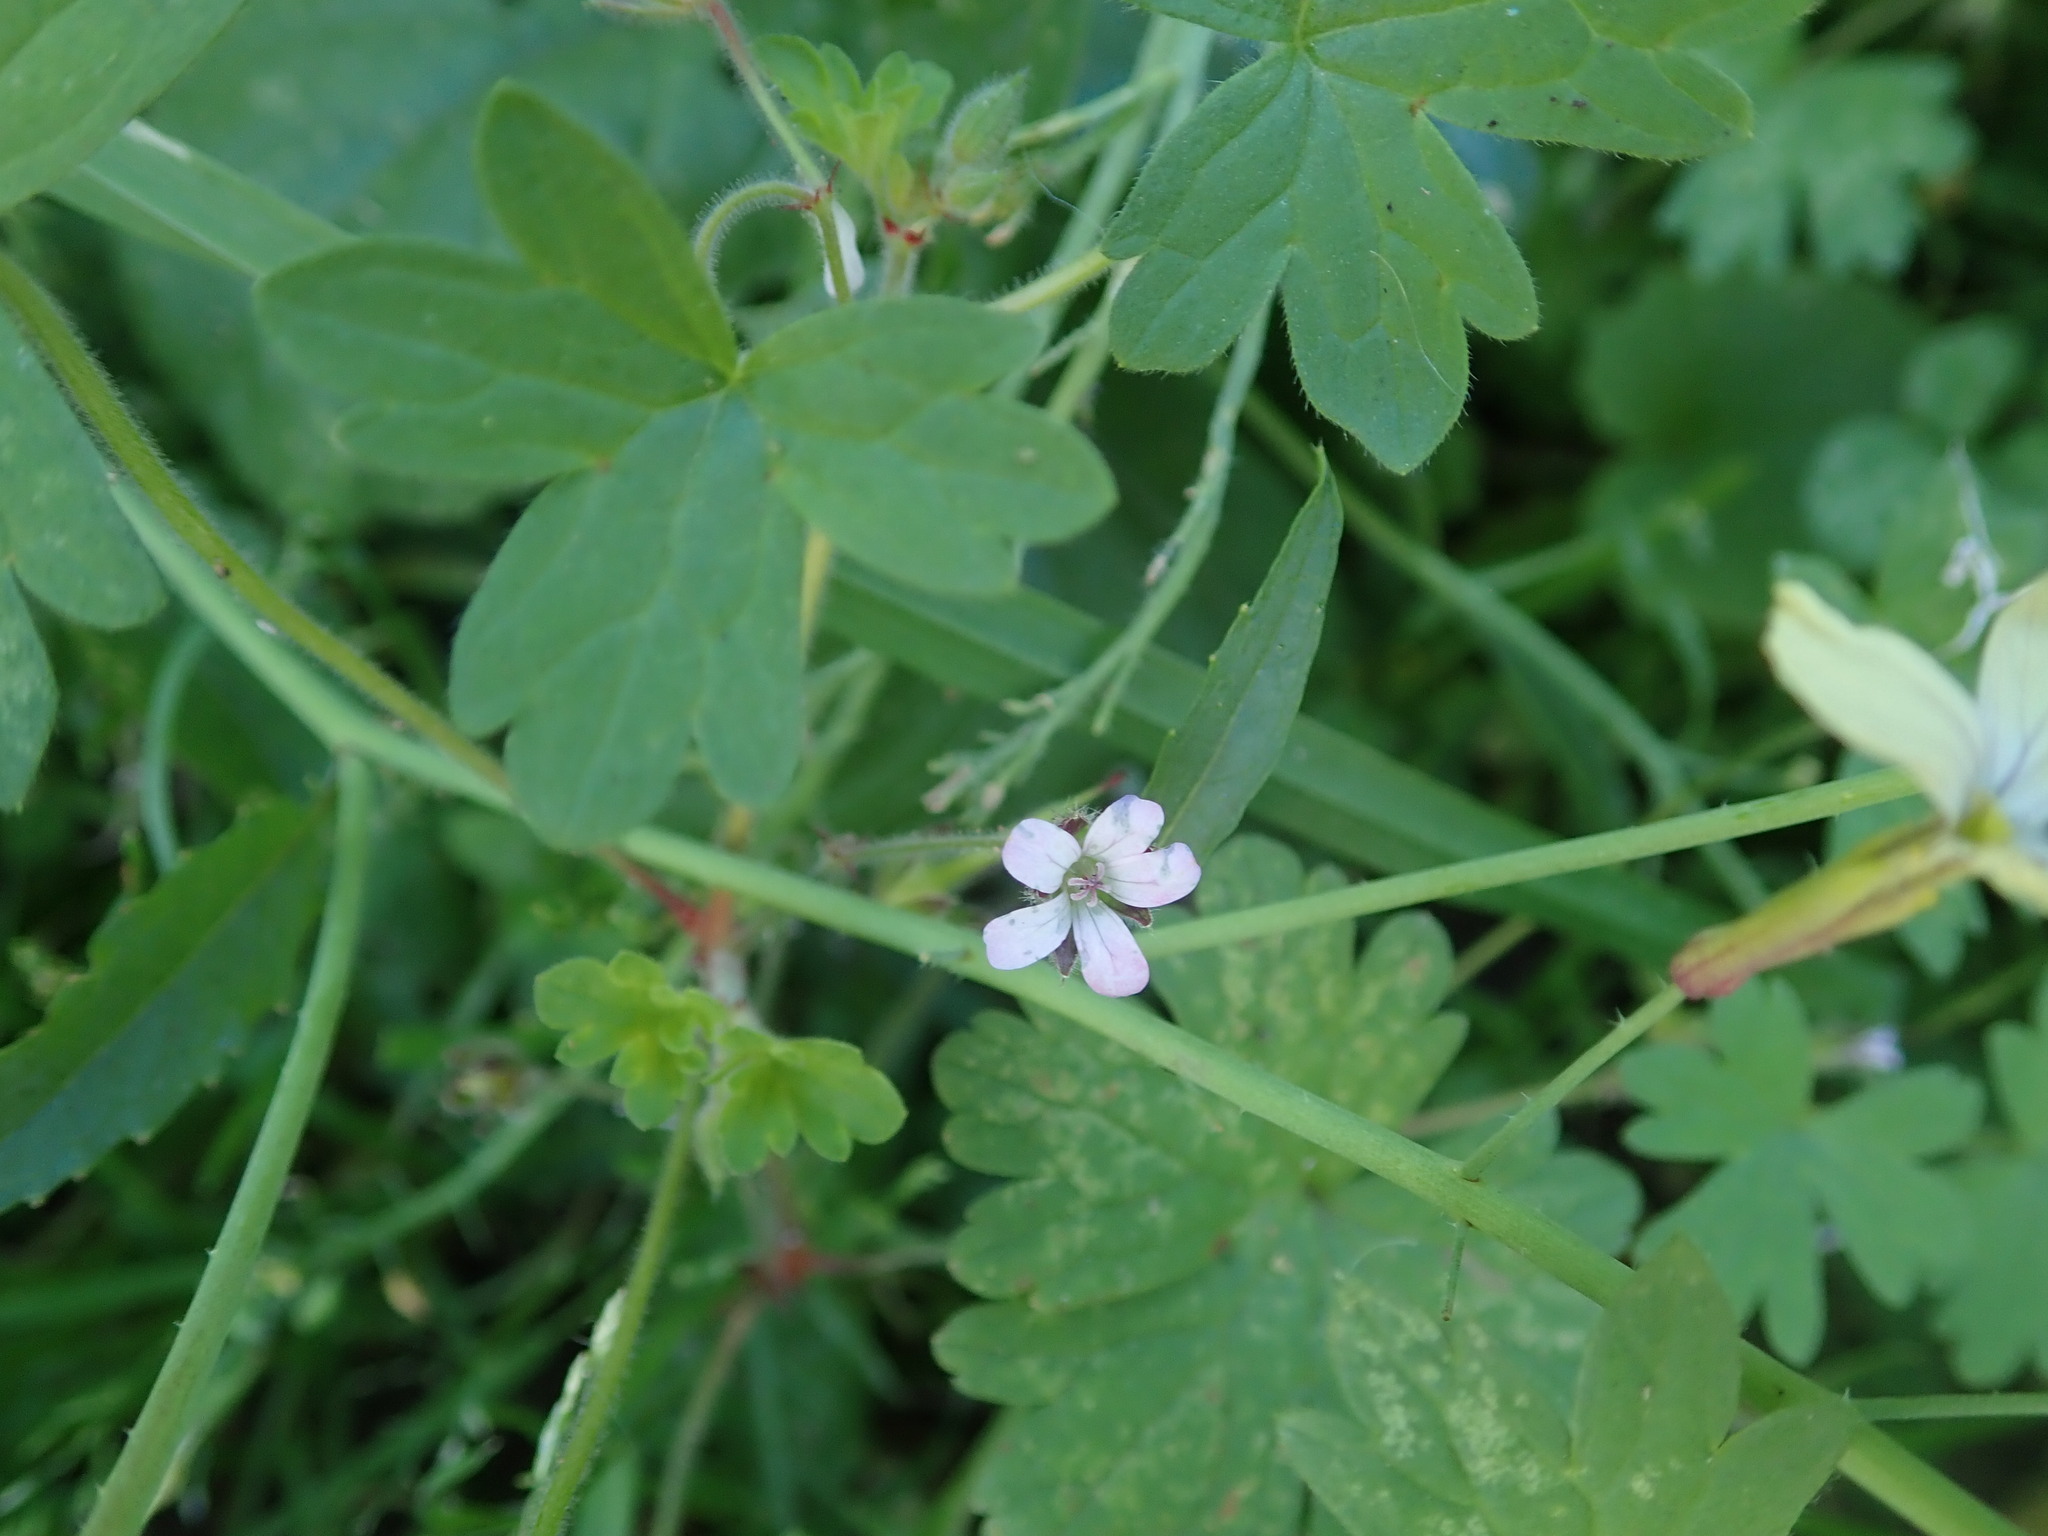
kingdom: Plantae
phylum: Tracheophyta
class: Magnoliopsida
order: Geraniales
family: Geraniaceae
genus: Geranium
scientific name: Geranium rotundifolium
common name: Round-leaved crane's-bill
